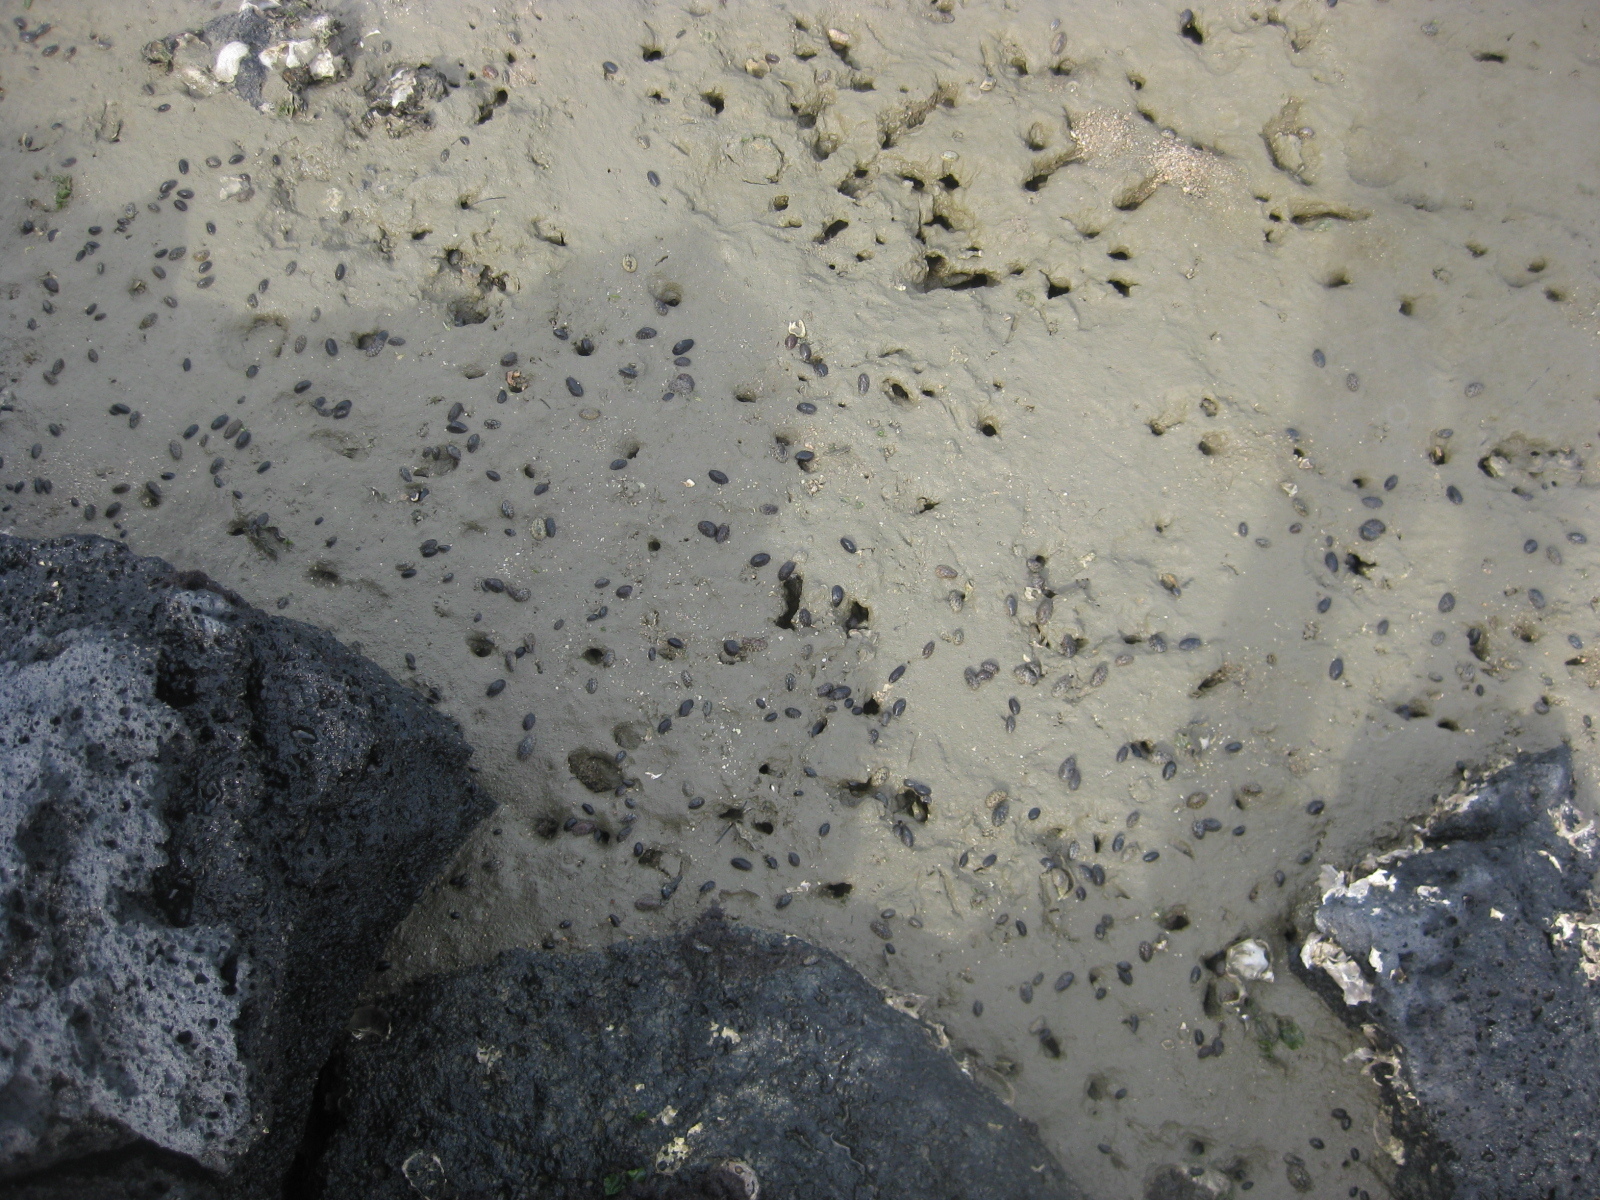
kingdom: Animalia
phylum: Mollusca
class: Gastropoda
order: Systellommatophora
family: Onchidiidae
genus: Onchidella
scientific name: Onchidella nigricans
